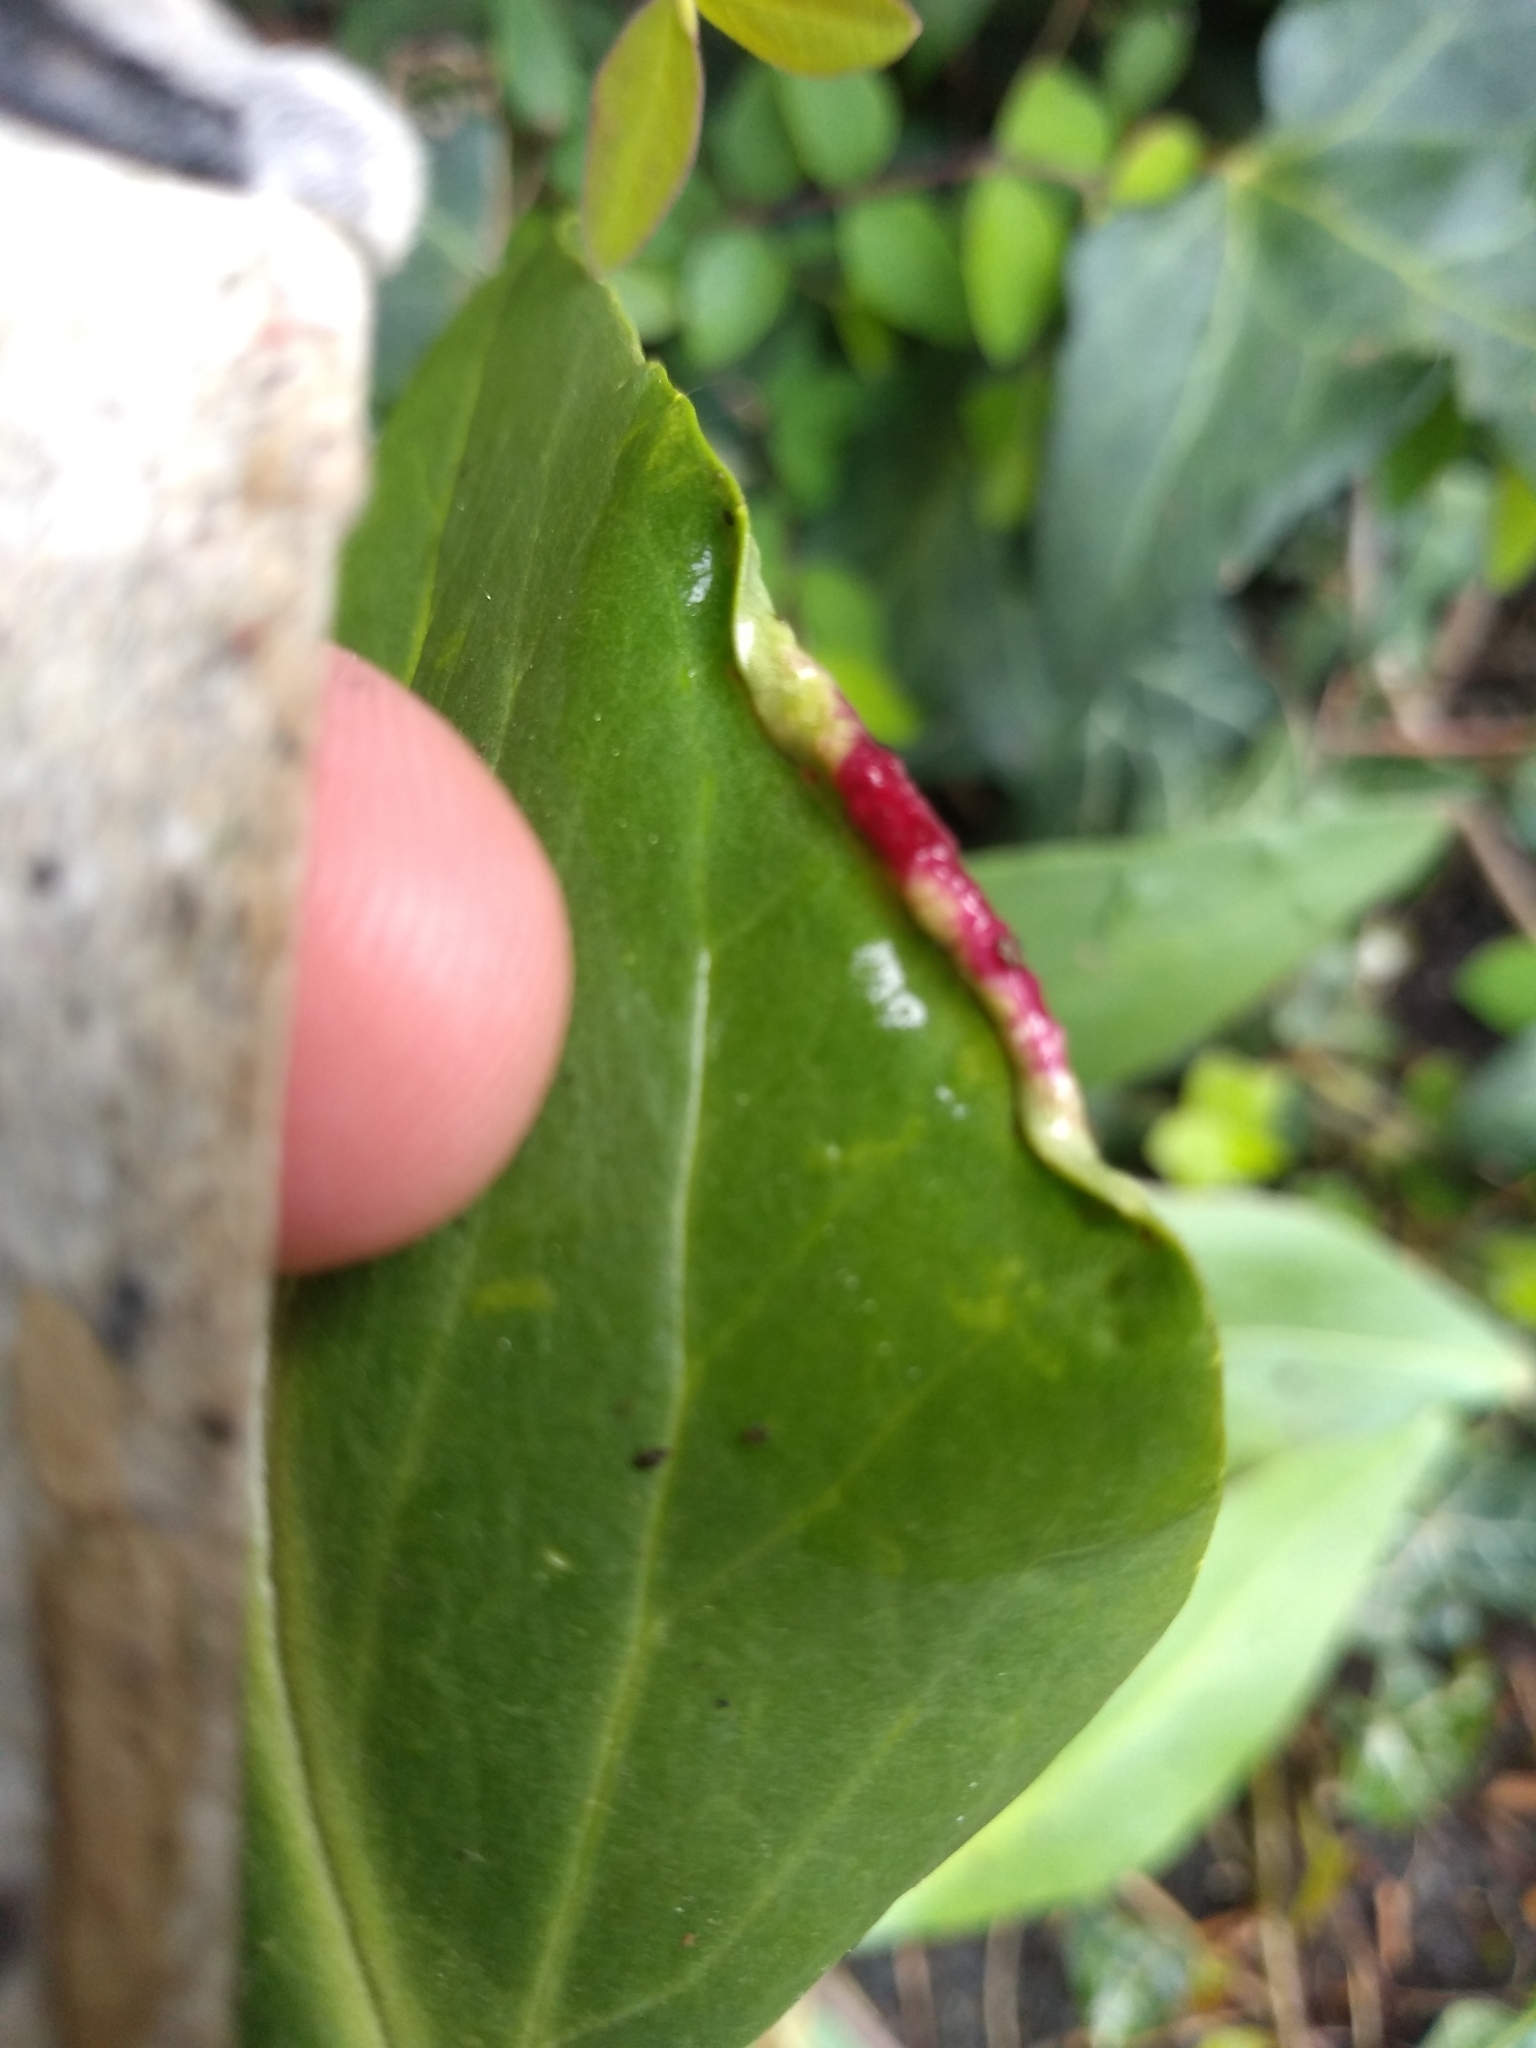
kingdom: Animalia
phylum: Arthropoda
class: Insecta
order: Hemiptera
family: Triozidae
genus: Trioza
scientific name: Trioza centranthi
